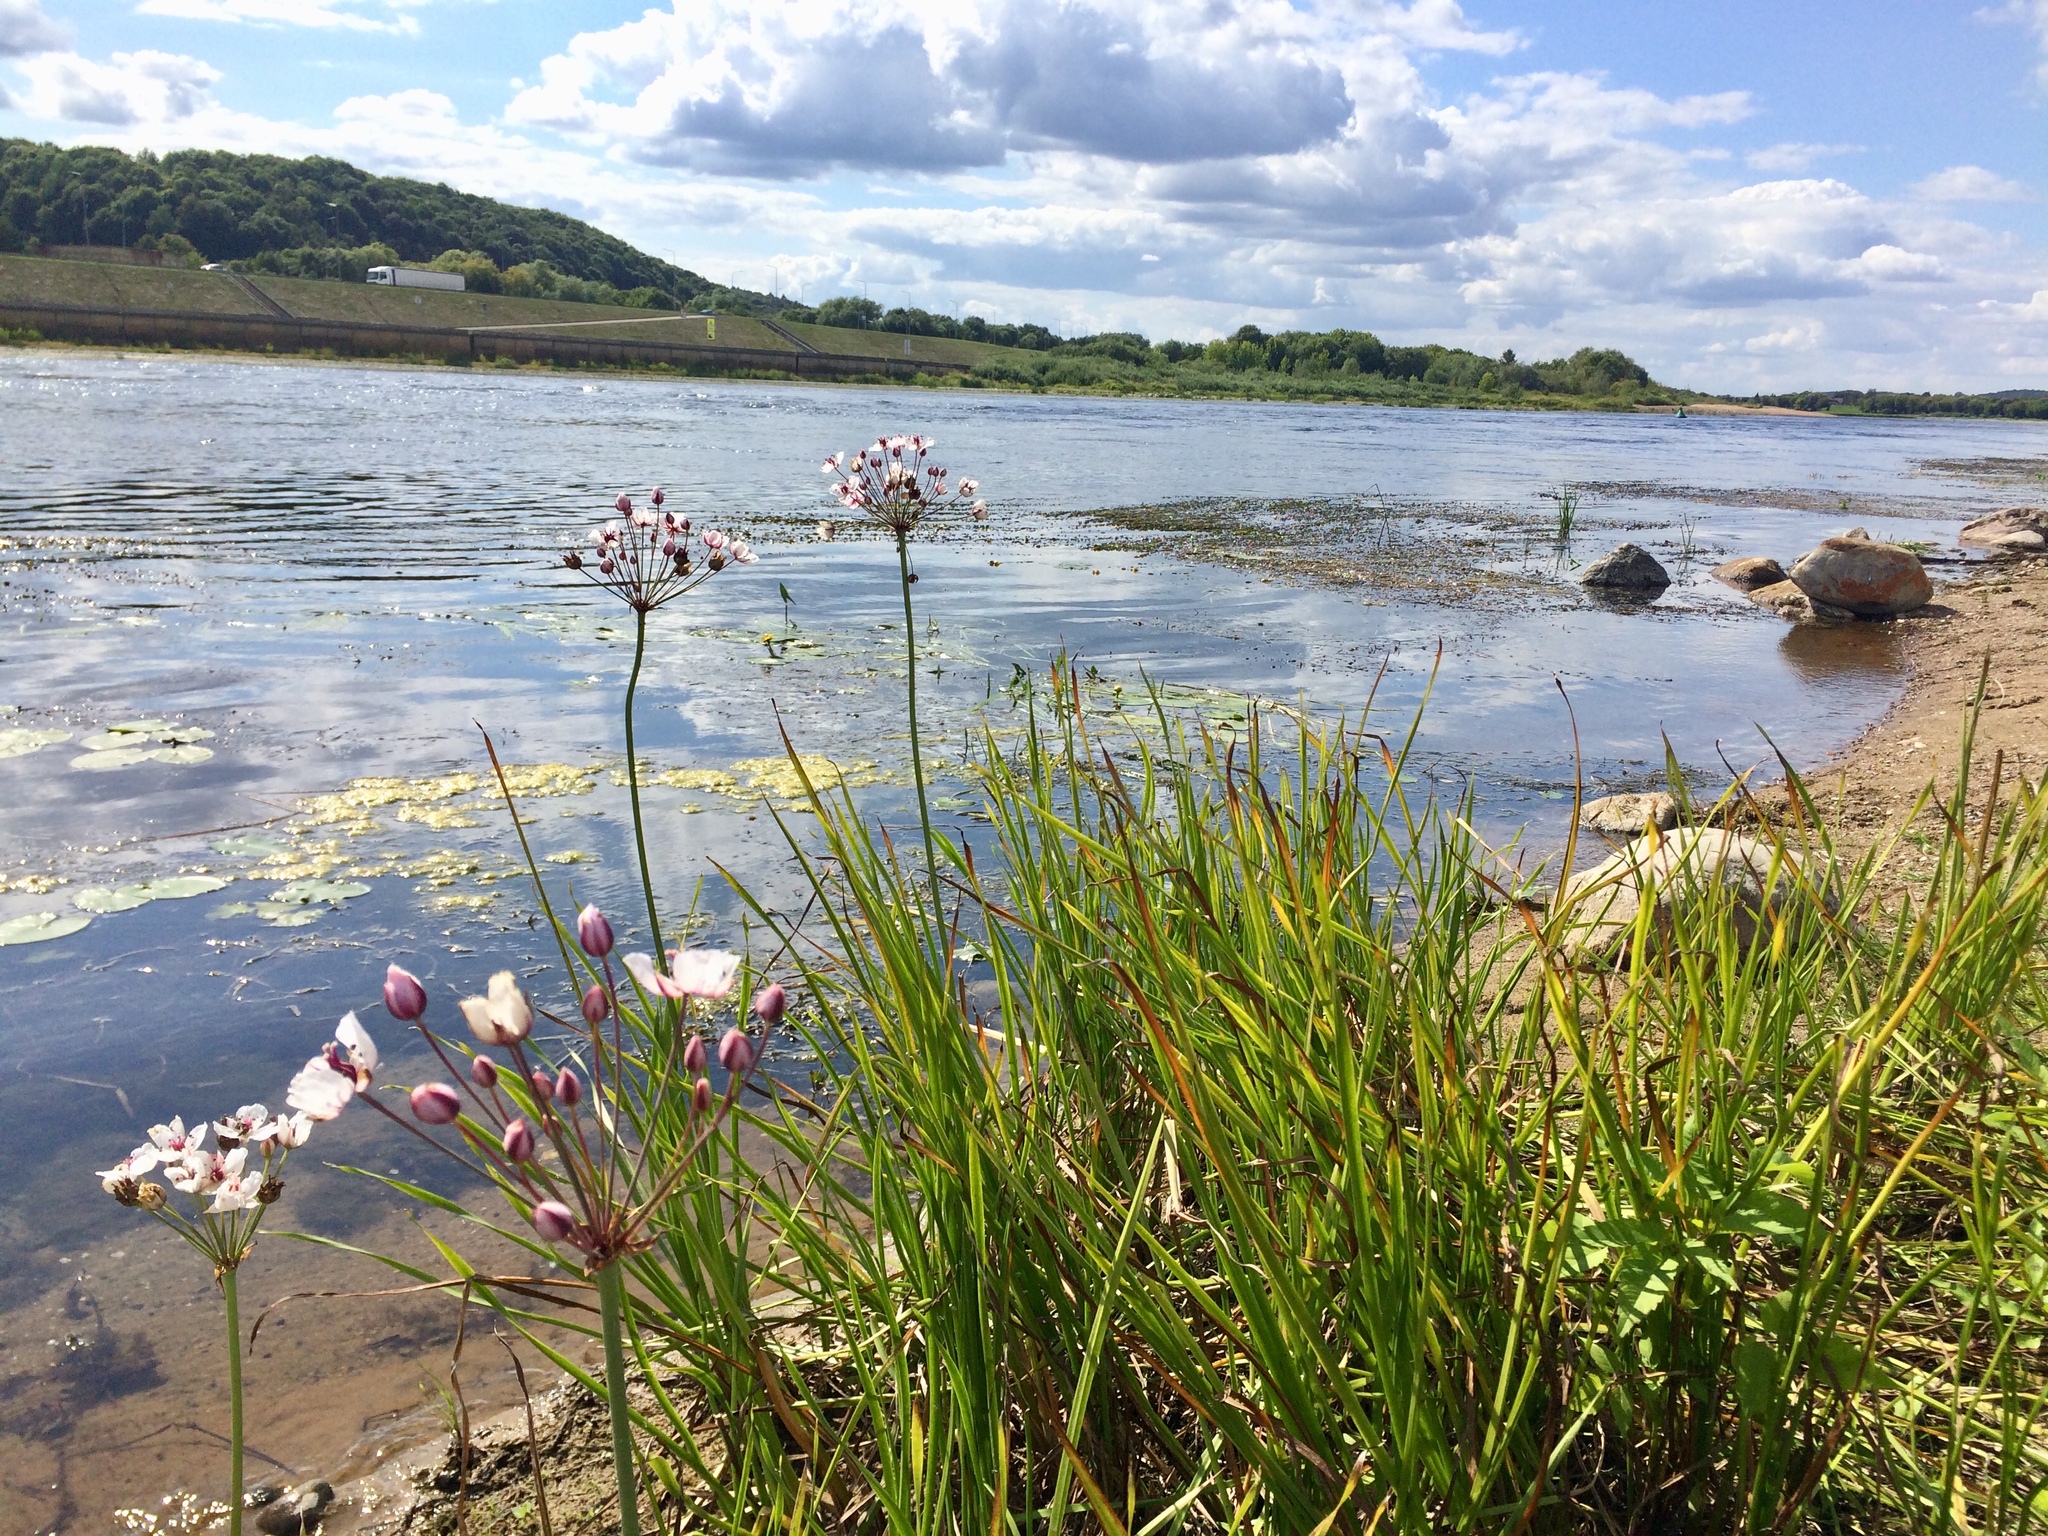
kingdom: Plantae
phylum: Tracheophyta
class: Liliopsida
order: Alismatales
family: Butomaceae
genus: Butomus
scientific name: Butomus umbellatus
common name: Flowering-rush
